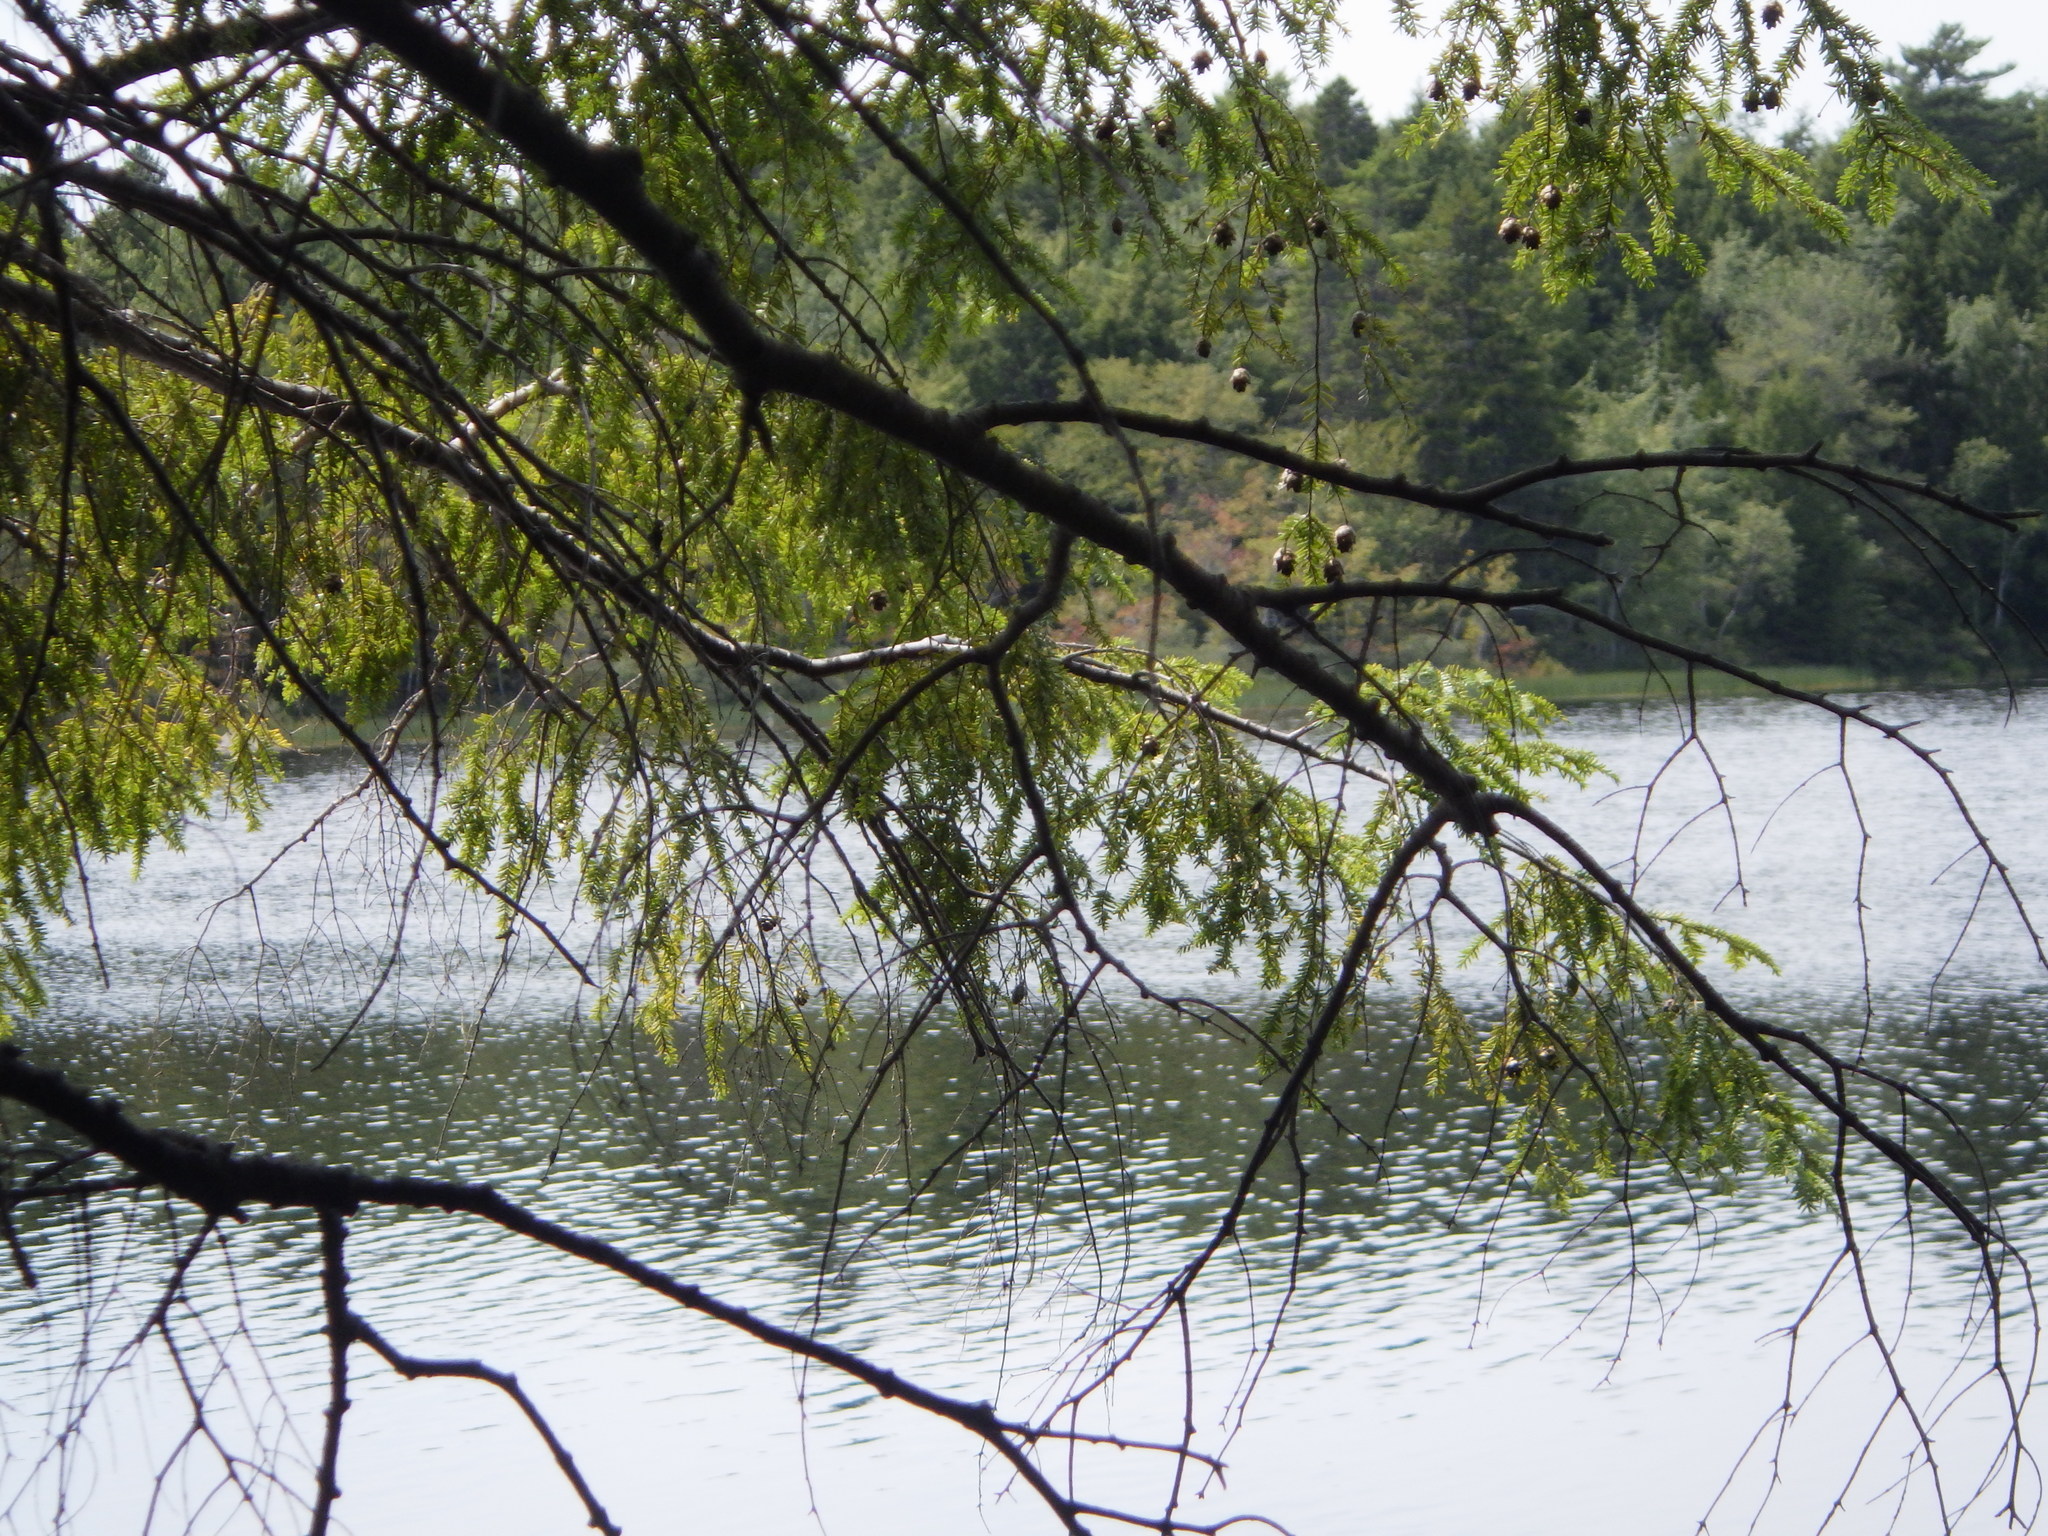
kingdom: Plantae
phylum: Tracheophyta
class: Pinopsida
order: Pinales
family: Pinaceae
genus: Tsuga
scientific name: Tsuga canadensis
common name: Eastern hemlock
